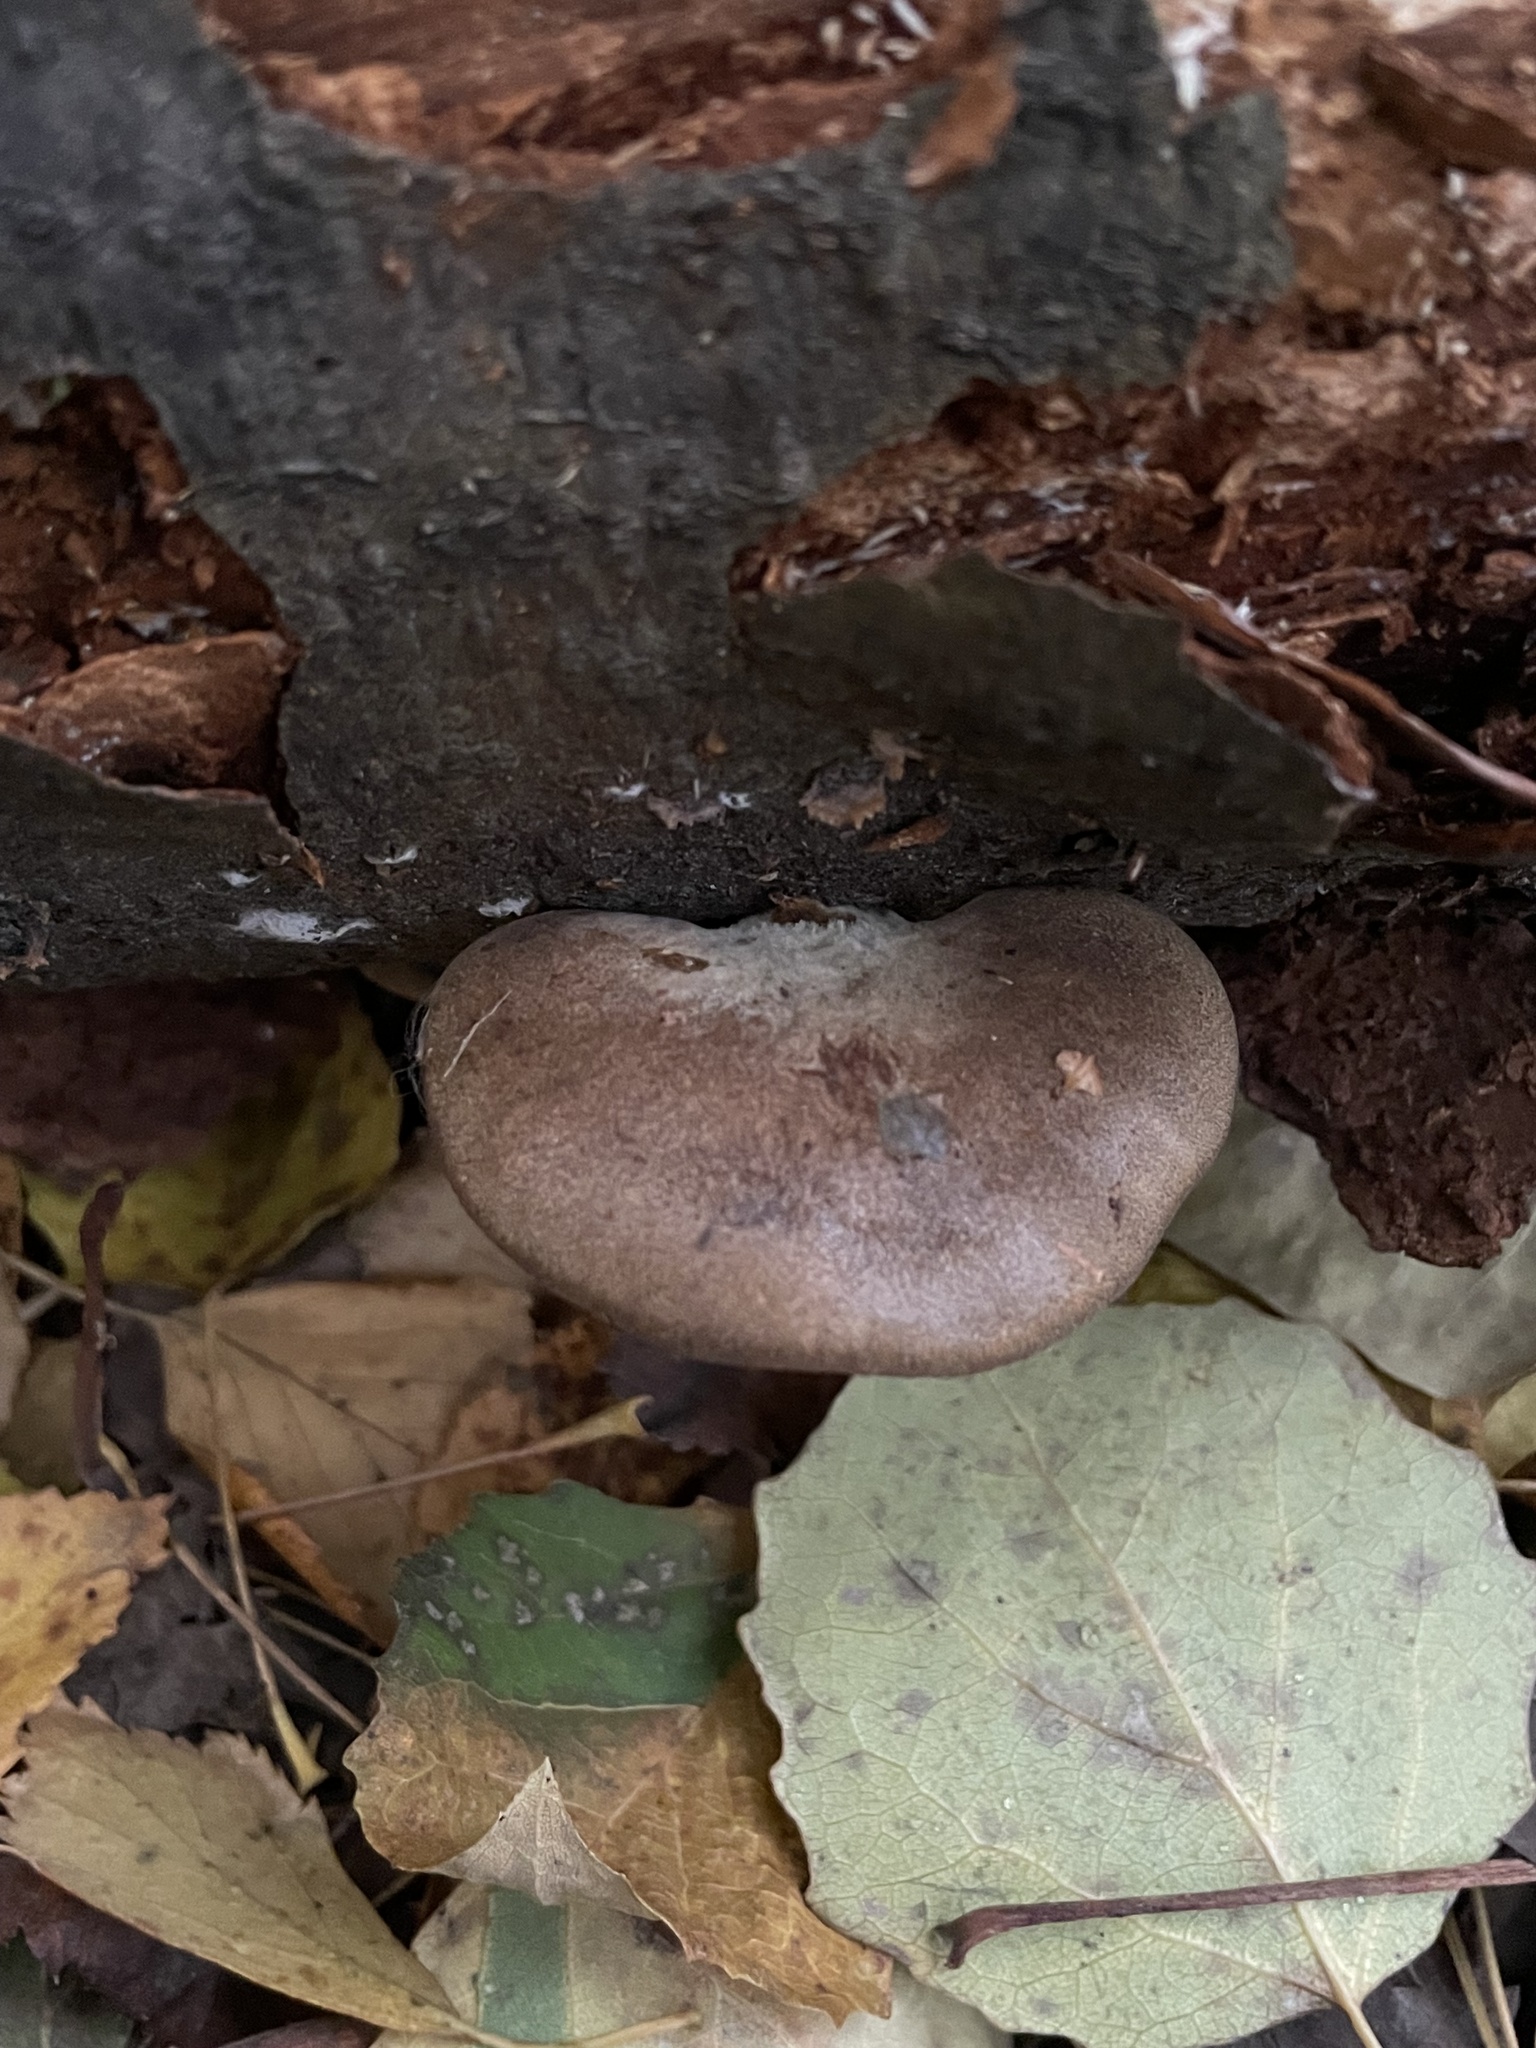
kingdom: Fungi
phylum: Basidiomycota
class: Agaricomycetes
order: Agaricales
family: Sarcomyxaceae
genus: Sarcomyxa
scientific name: Sarcomyxa serotina
